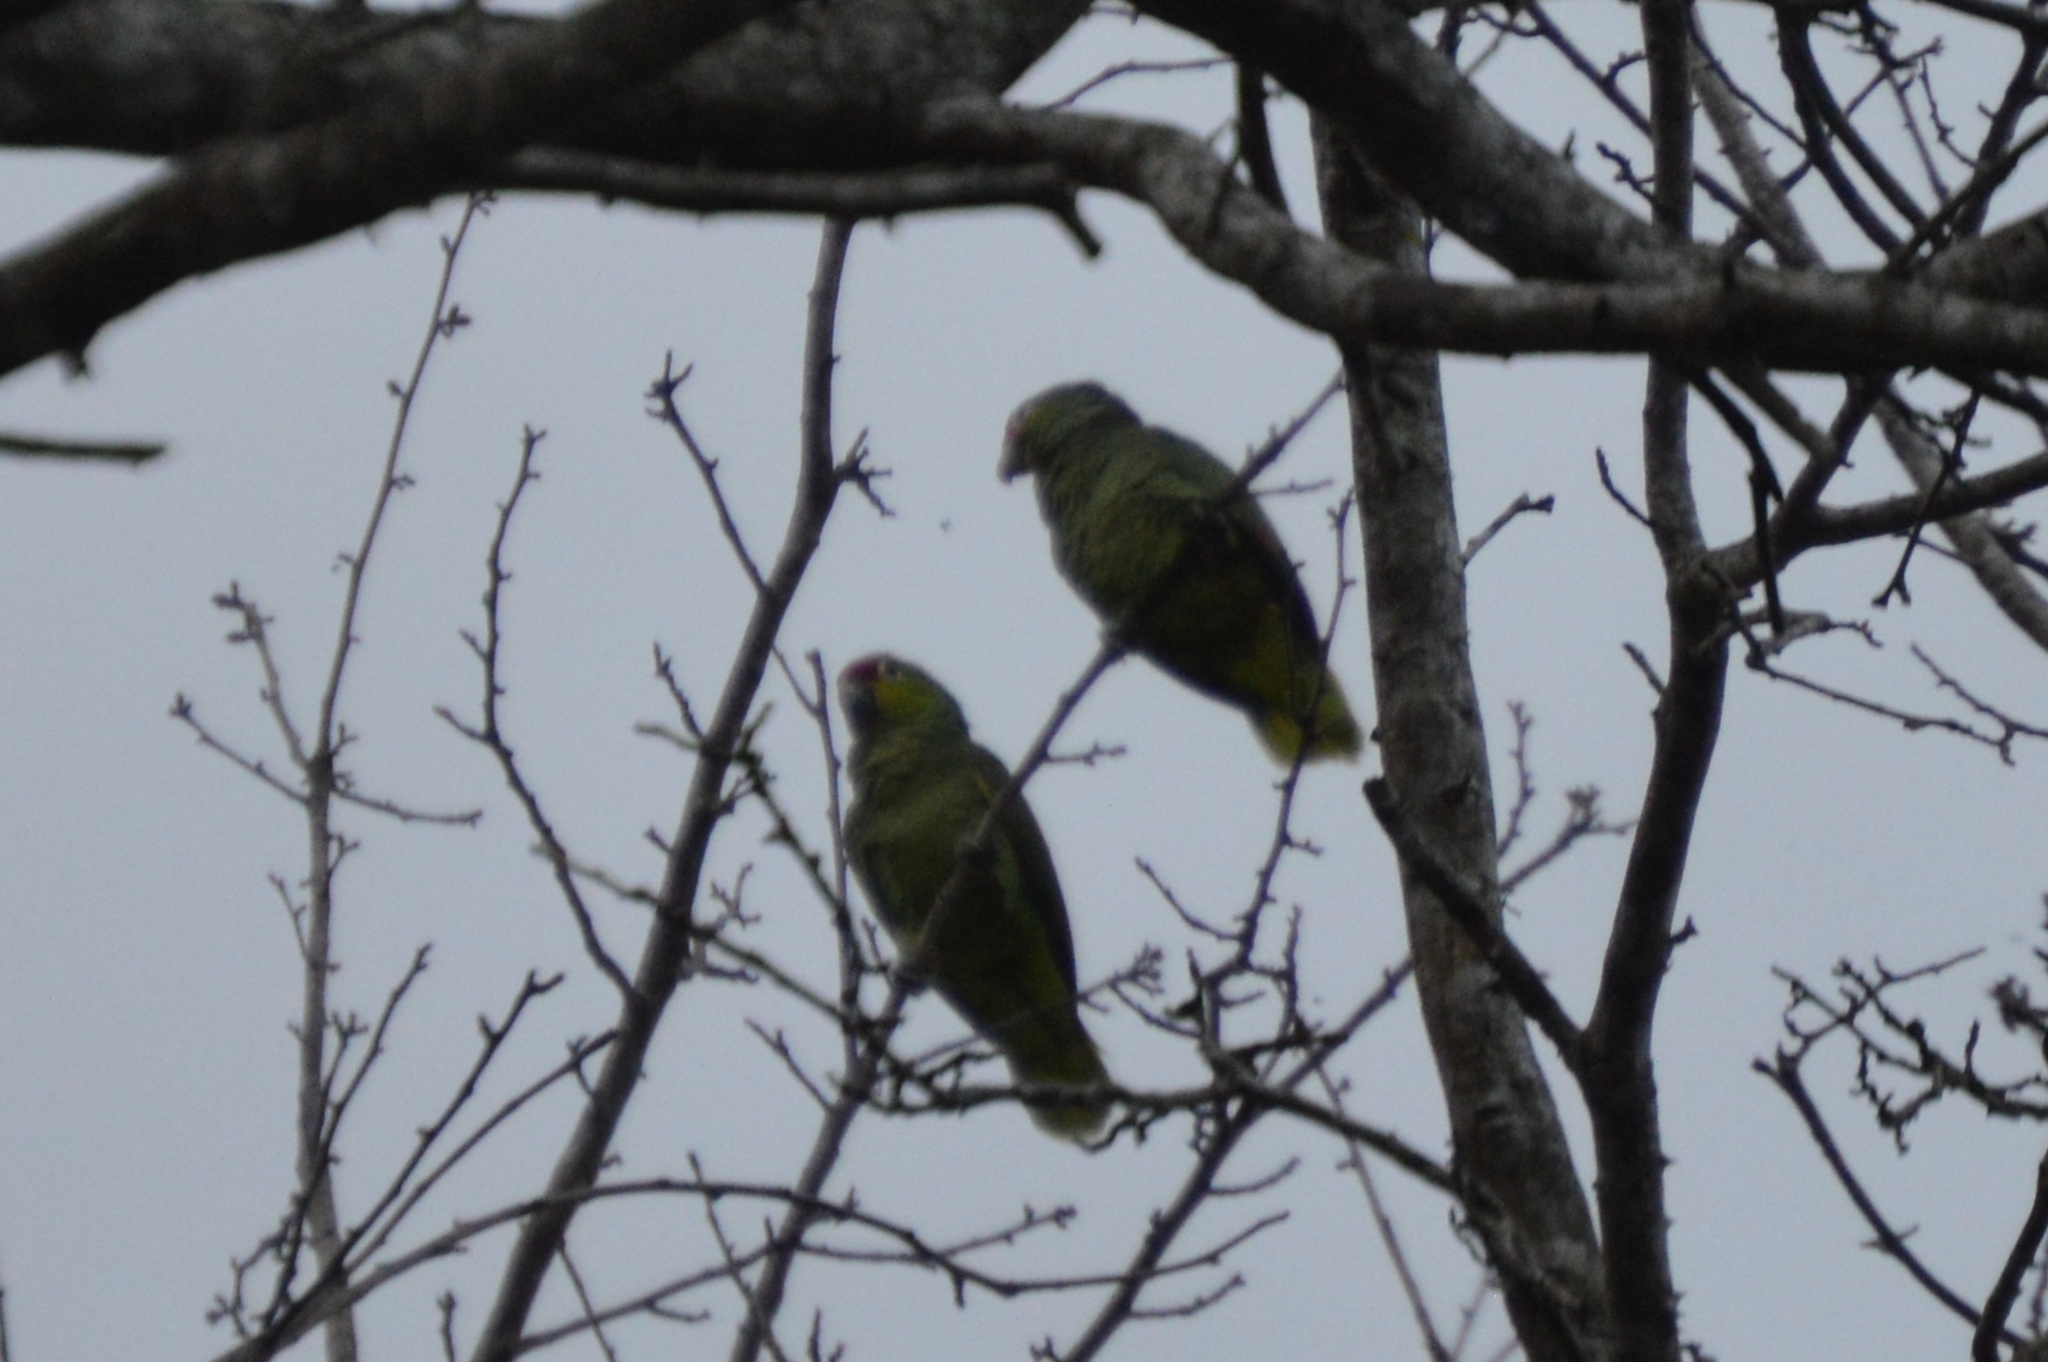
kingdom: Animalia
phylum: Chordata
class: Aves
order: Psittaciformes
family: Psittacidae
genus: Amazona
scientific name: Amazona autumnalis
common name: Red-lored amazon
